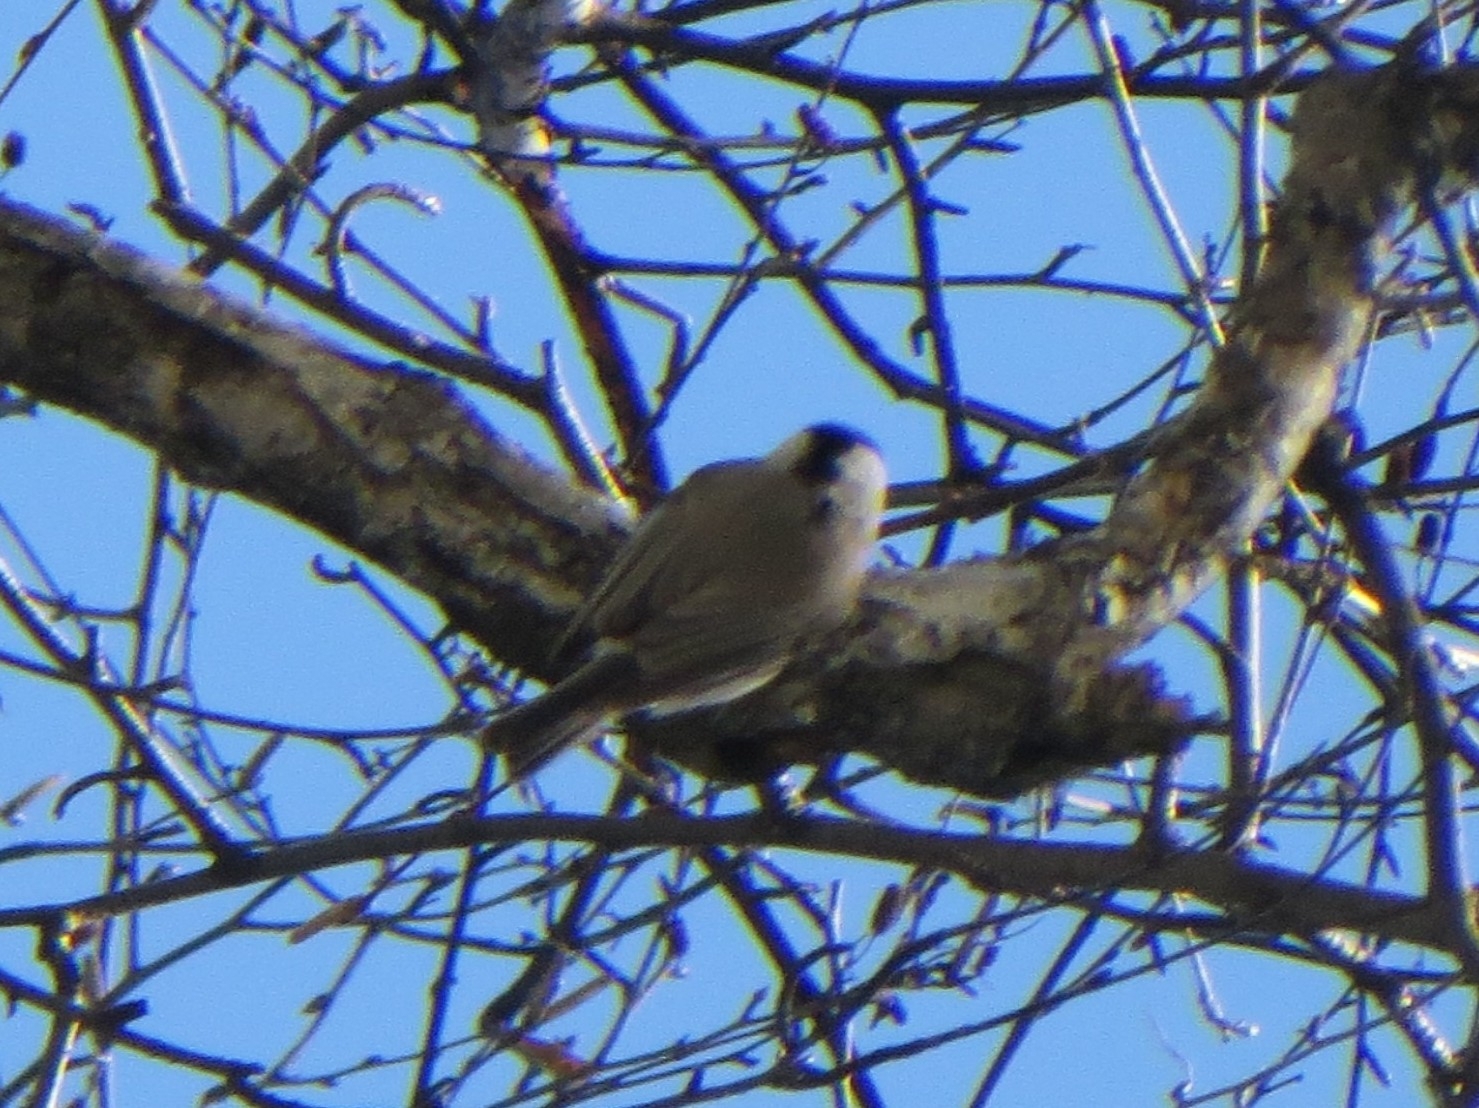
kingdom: Animalia
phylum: Chordata
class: Aves
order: Passeriformes
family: Paridae
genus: Poecile
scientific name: Poecile palustris
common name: Marsh tit
